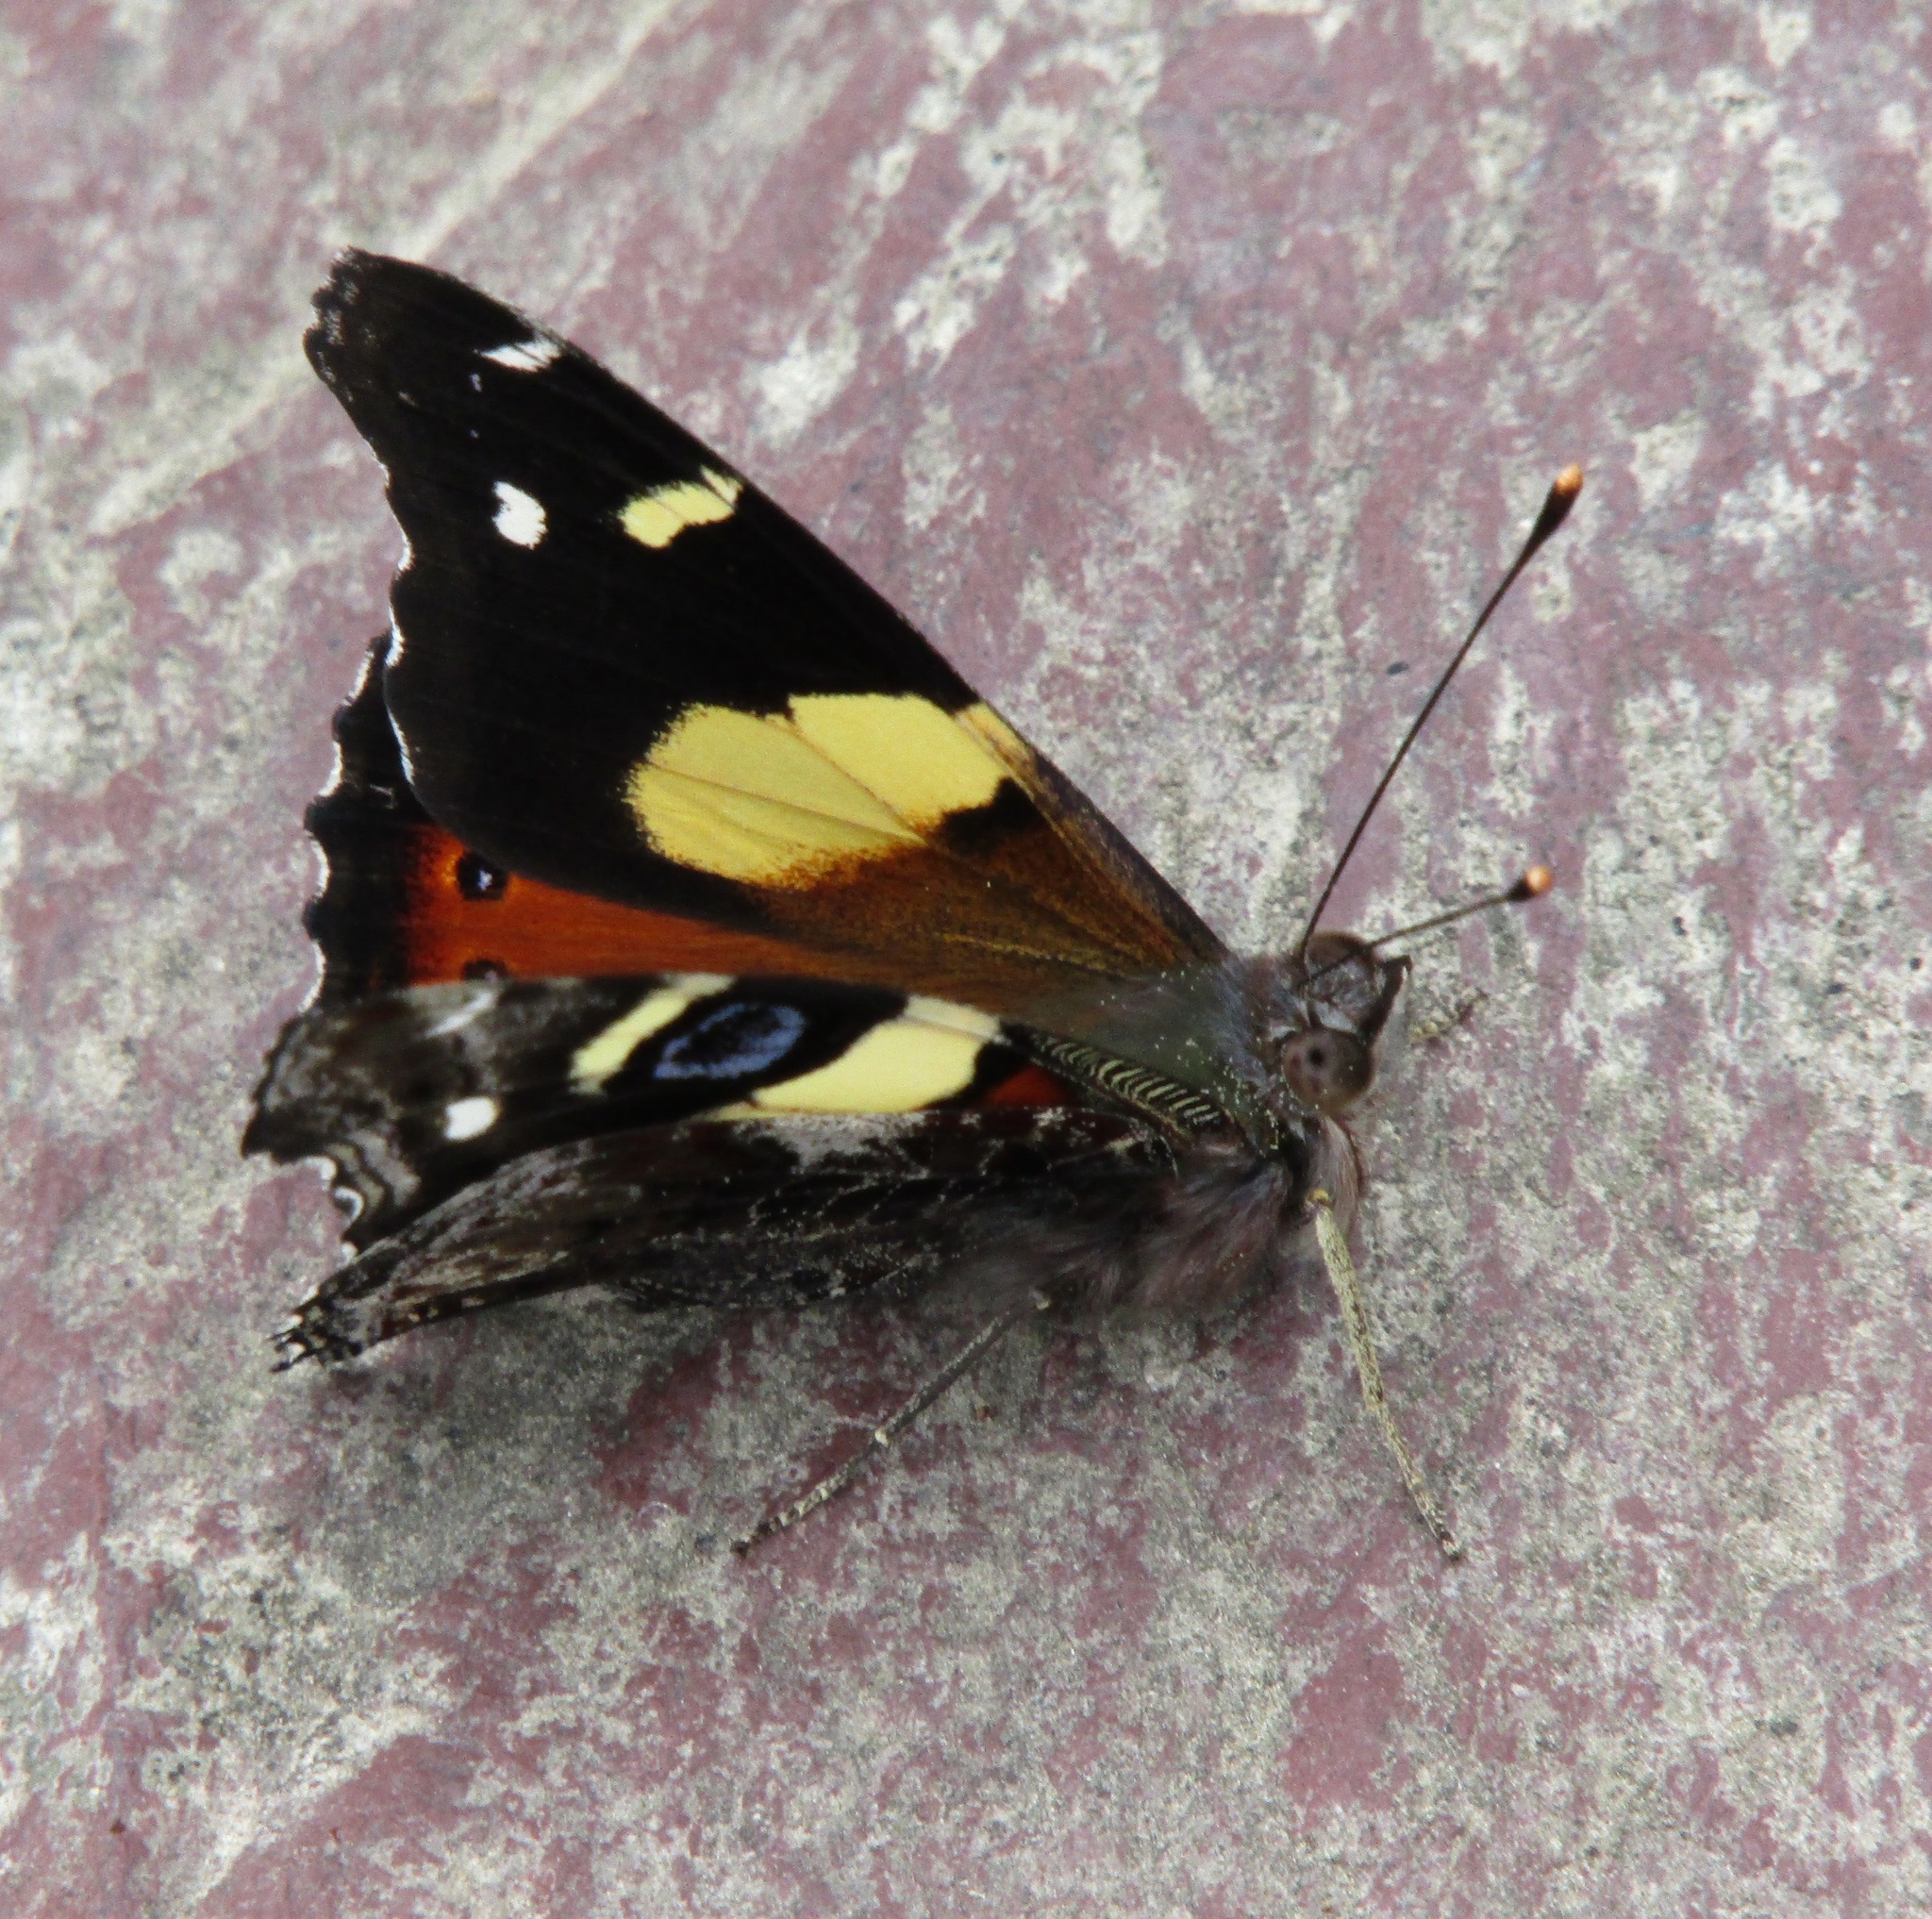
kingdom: Animalia
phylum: Arthropoda
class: Insecta
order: Lepidoptera
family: Nymphalidae
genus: Vanessa
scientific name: Vanessa itea
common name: Yellow admiral
